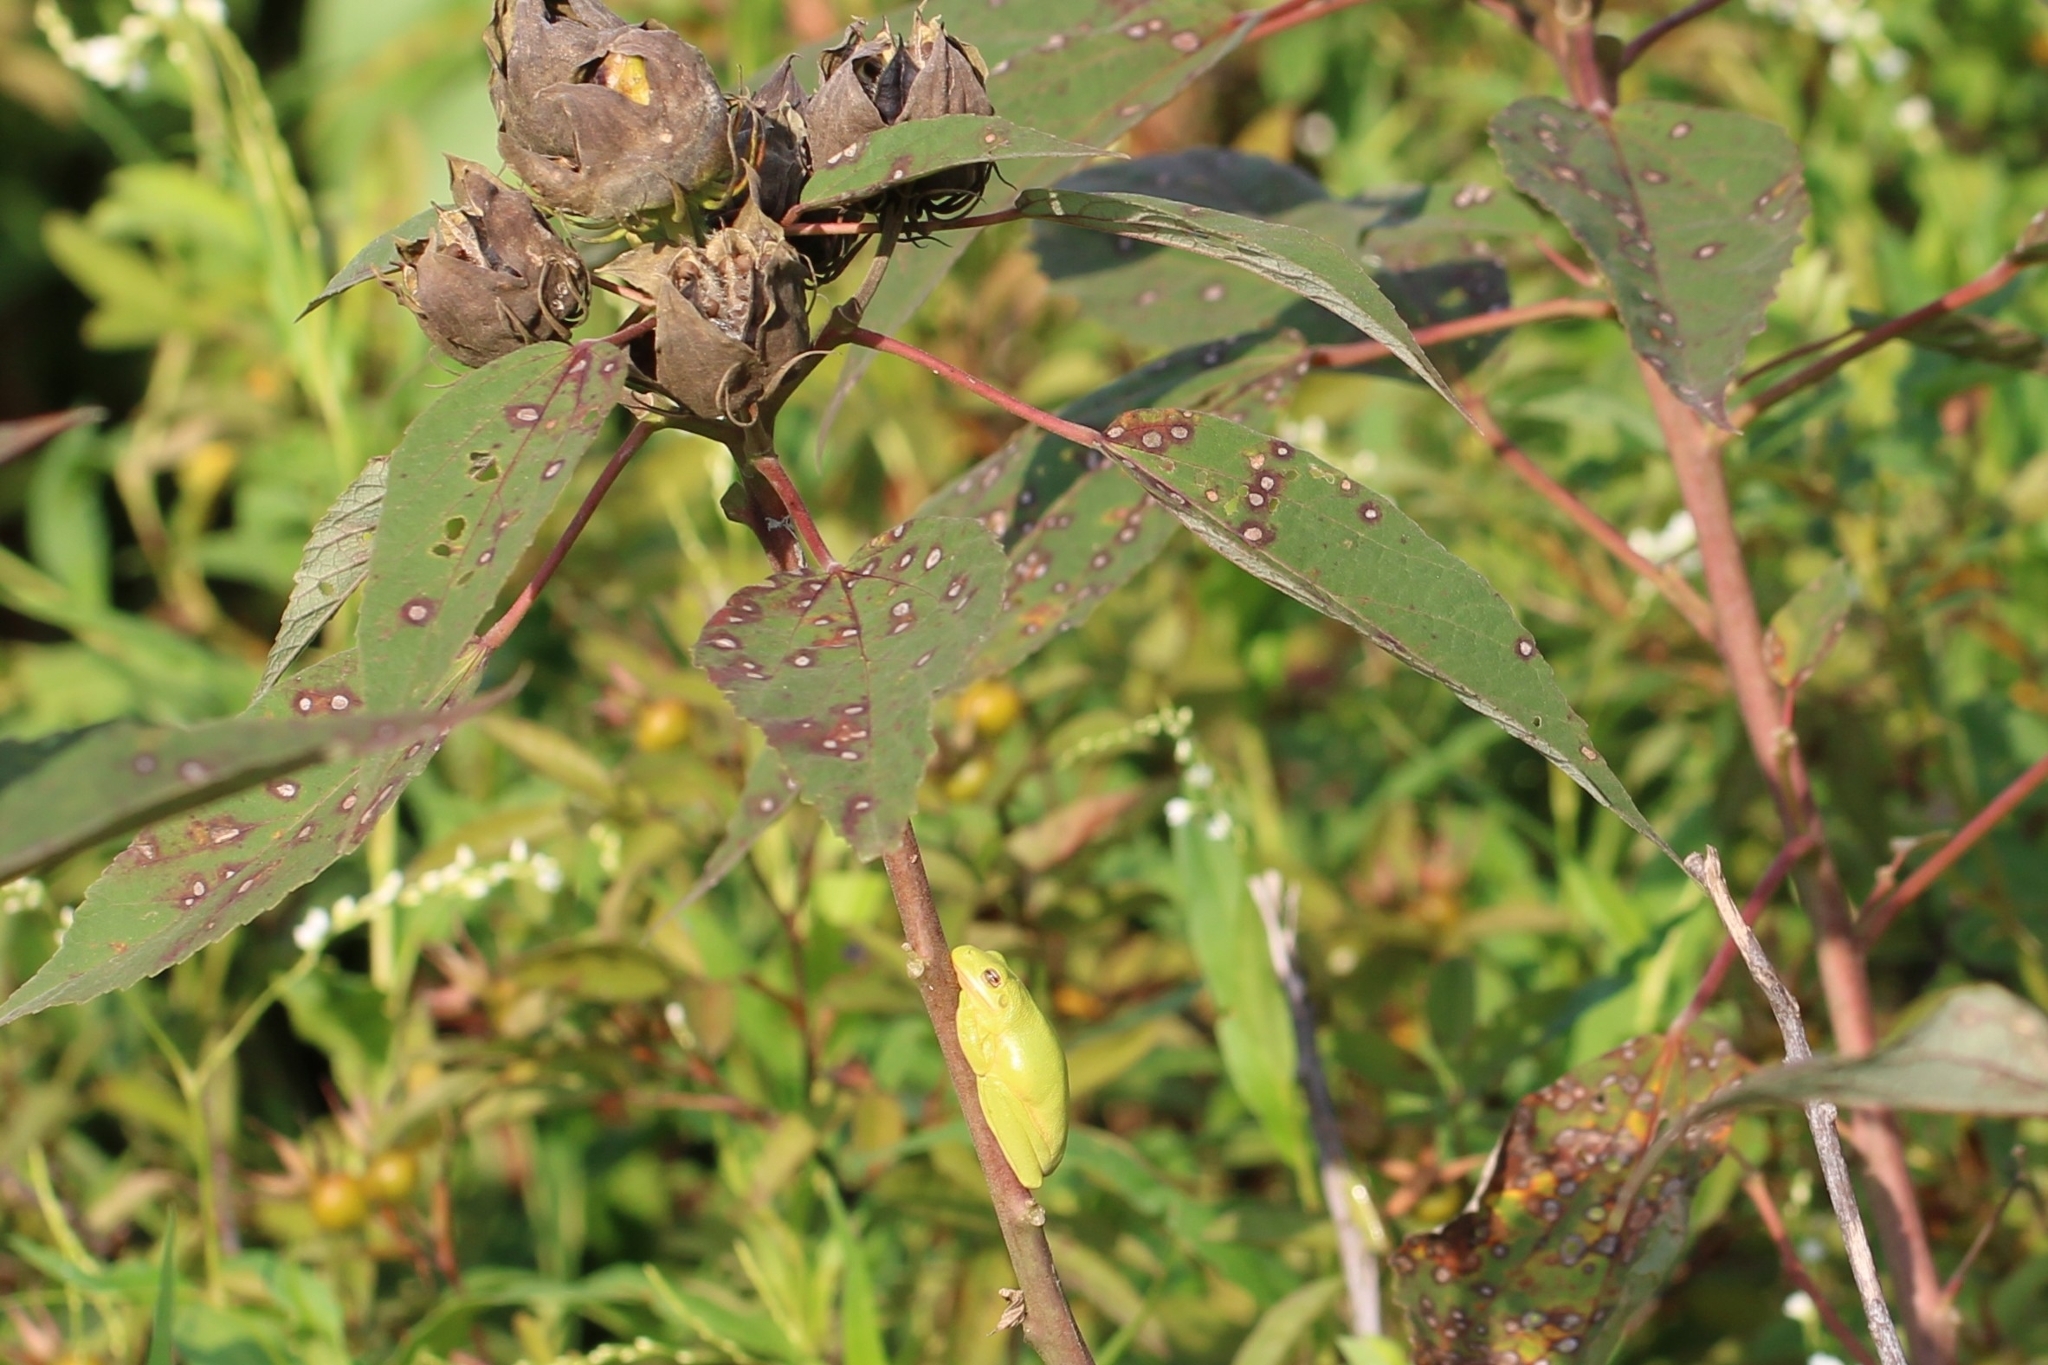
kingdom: Animalia
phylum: Chordata
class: Amphibia
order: Anura
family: Hylidae
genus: Dryophytes
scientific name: Dryophytes cinereus
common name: Green treefrog
